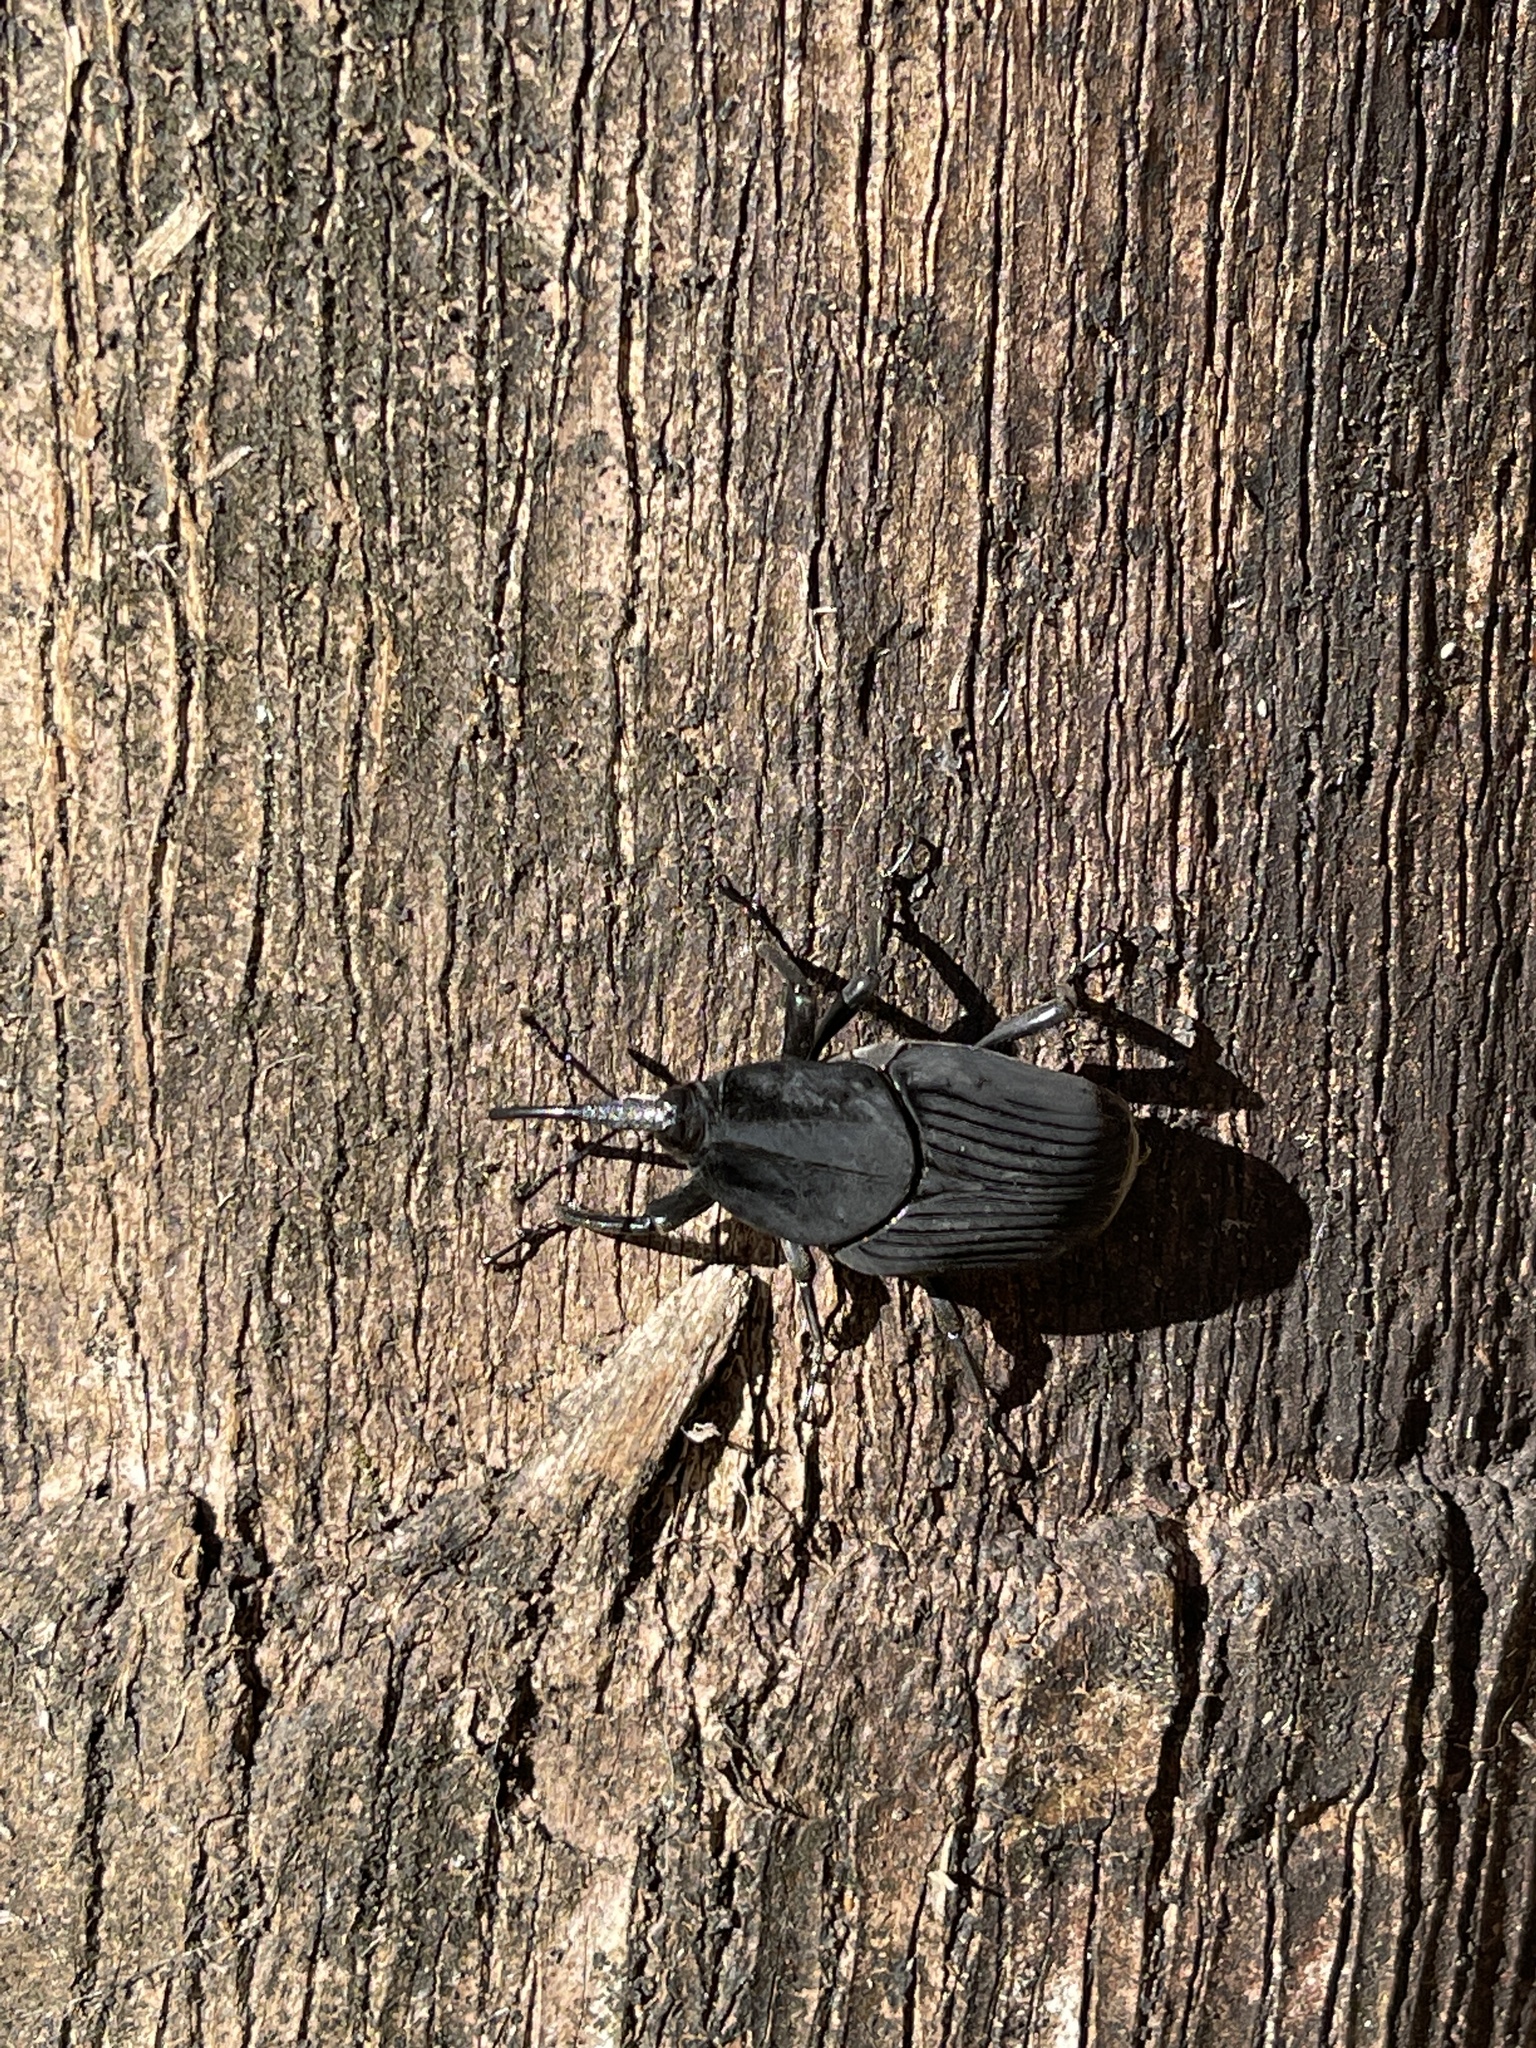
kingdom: Animalia
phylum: Arthropoda
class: Insecta
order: Coleoptera
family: Dryophthoridae
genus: Rhynchophorus
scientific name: Rhynchophorus palmarum
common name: Palm weevil
